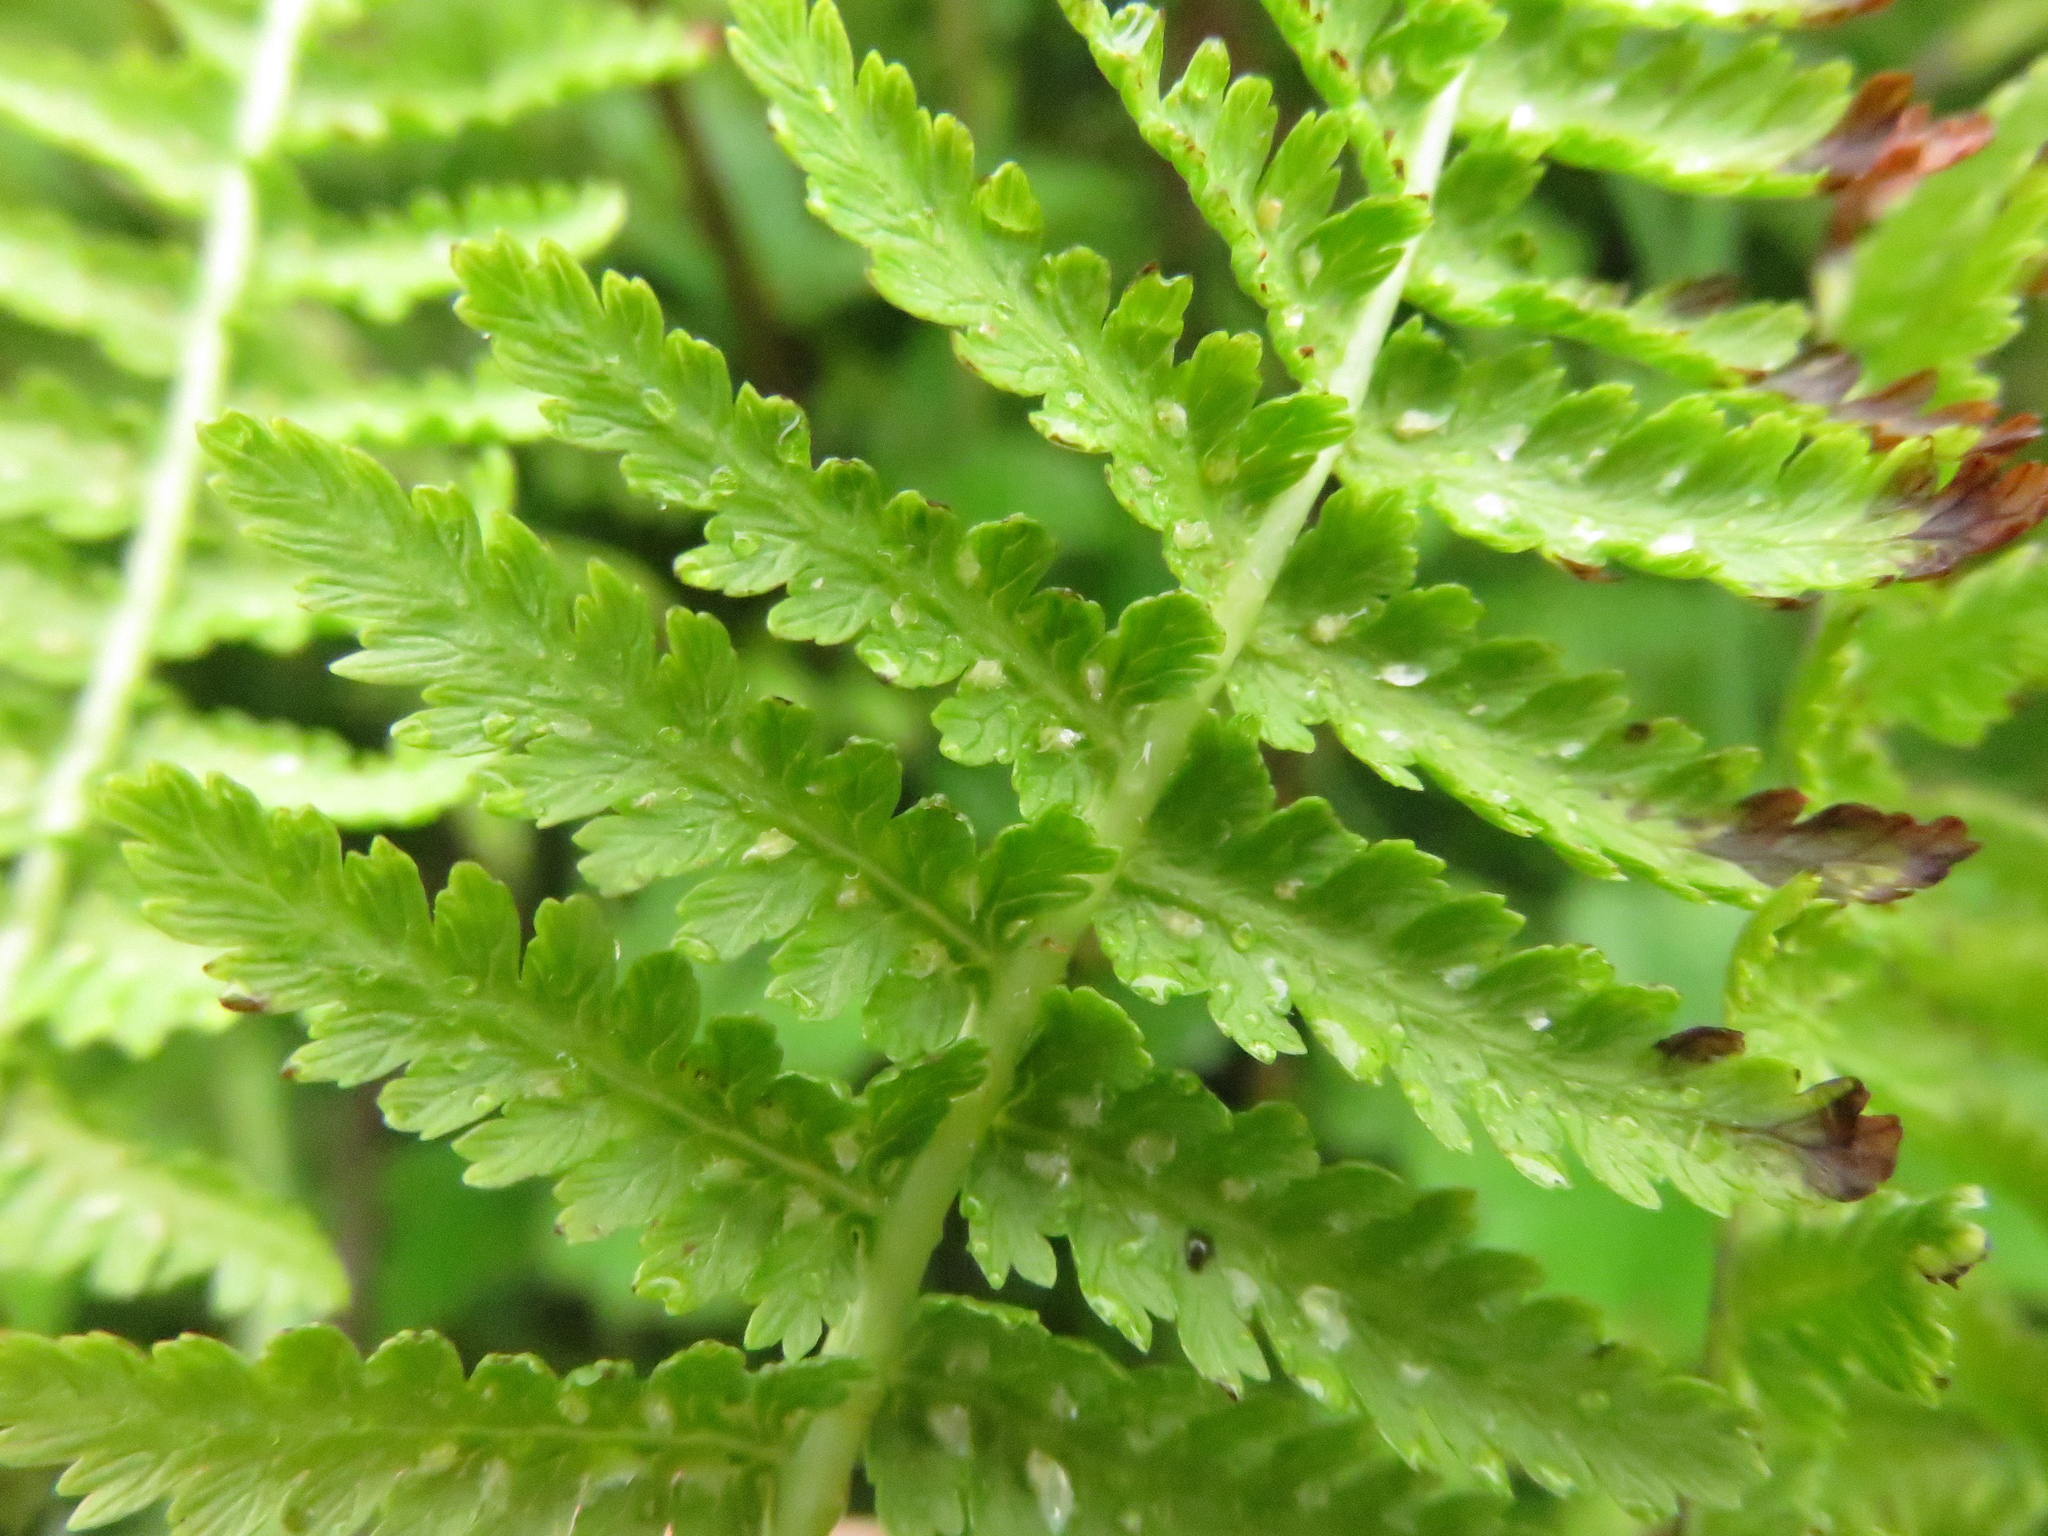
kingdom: Plantae
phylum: Tracheophyta
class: Polypodiopsida
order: Polypodiales
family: Athyriaceae
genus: Athyrium
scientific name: Athyrium filix-femina
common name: Lady fern
